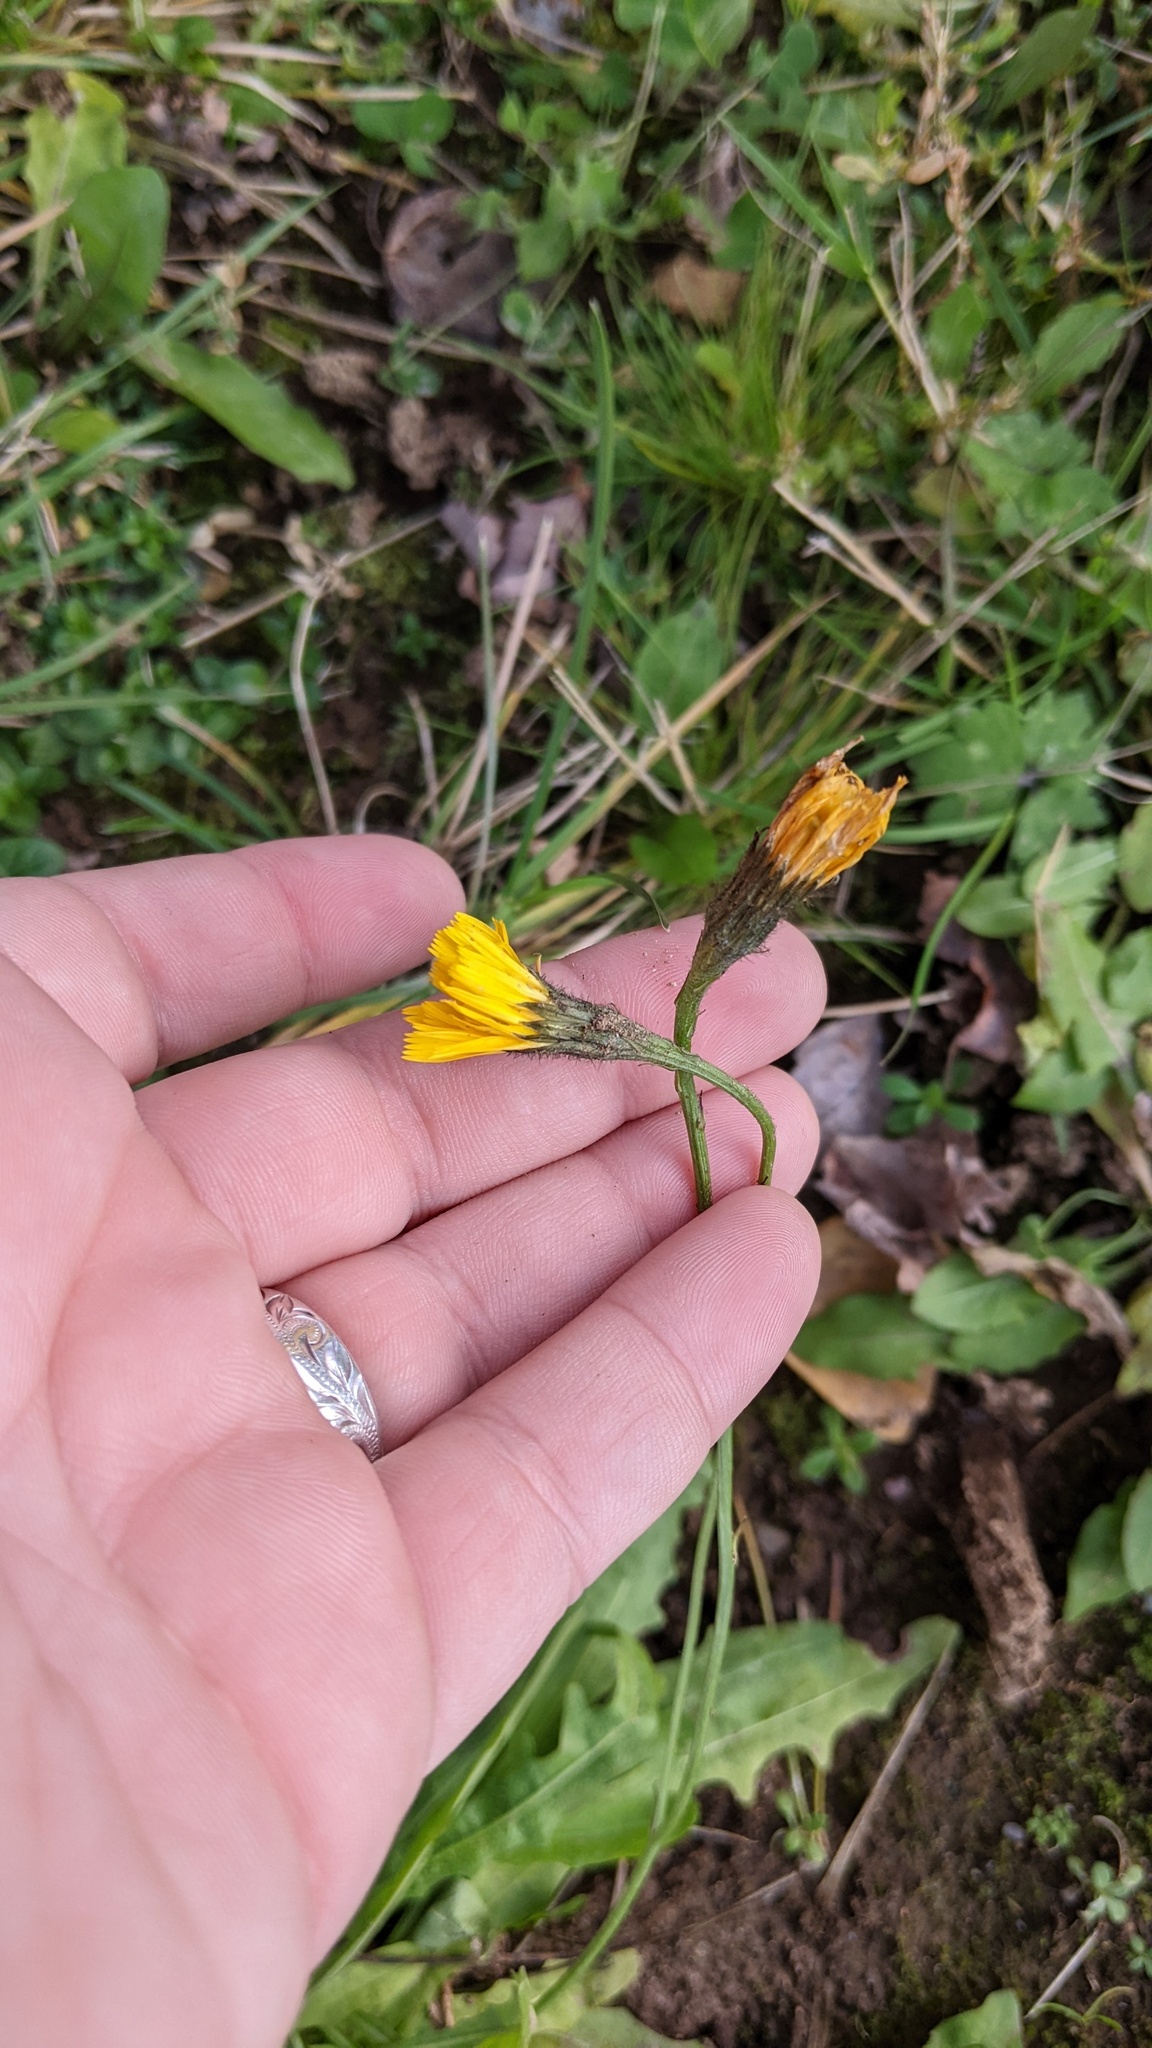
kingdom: Plantae
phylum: Tracheophyta
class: Magnoliopsida
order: Asterales
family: Asteraceae
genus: Scorzoneroides
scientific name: Scorzoneroides autumnalis
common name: Autumn hawkbit
